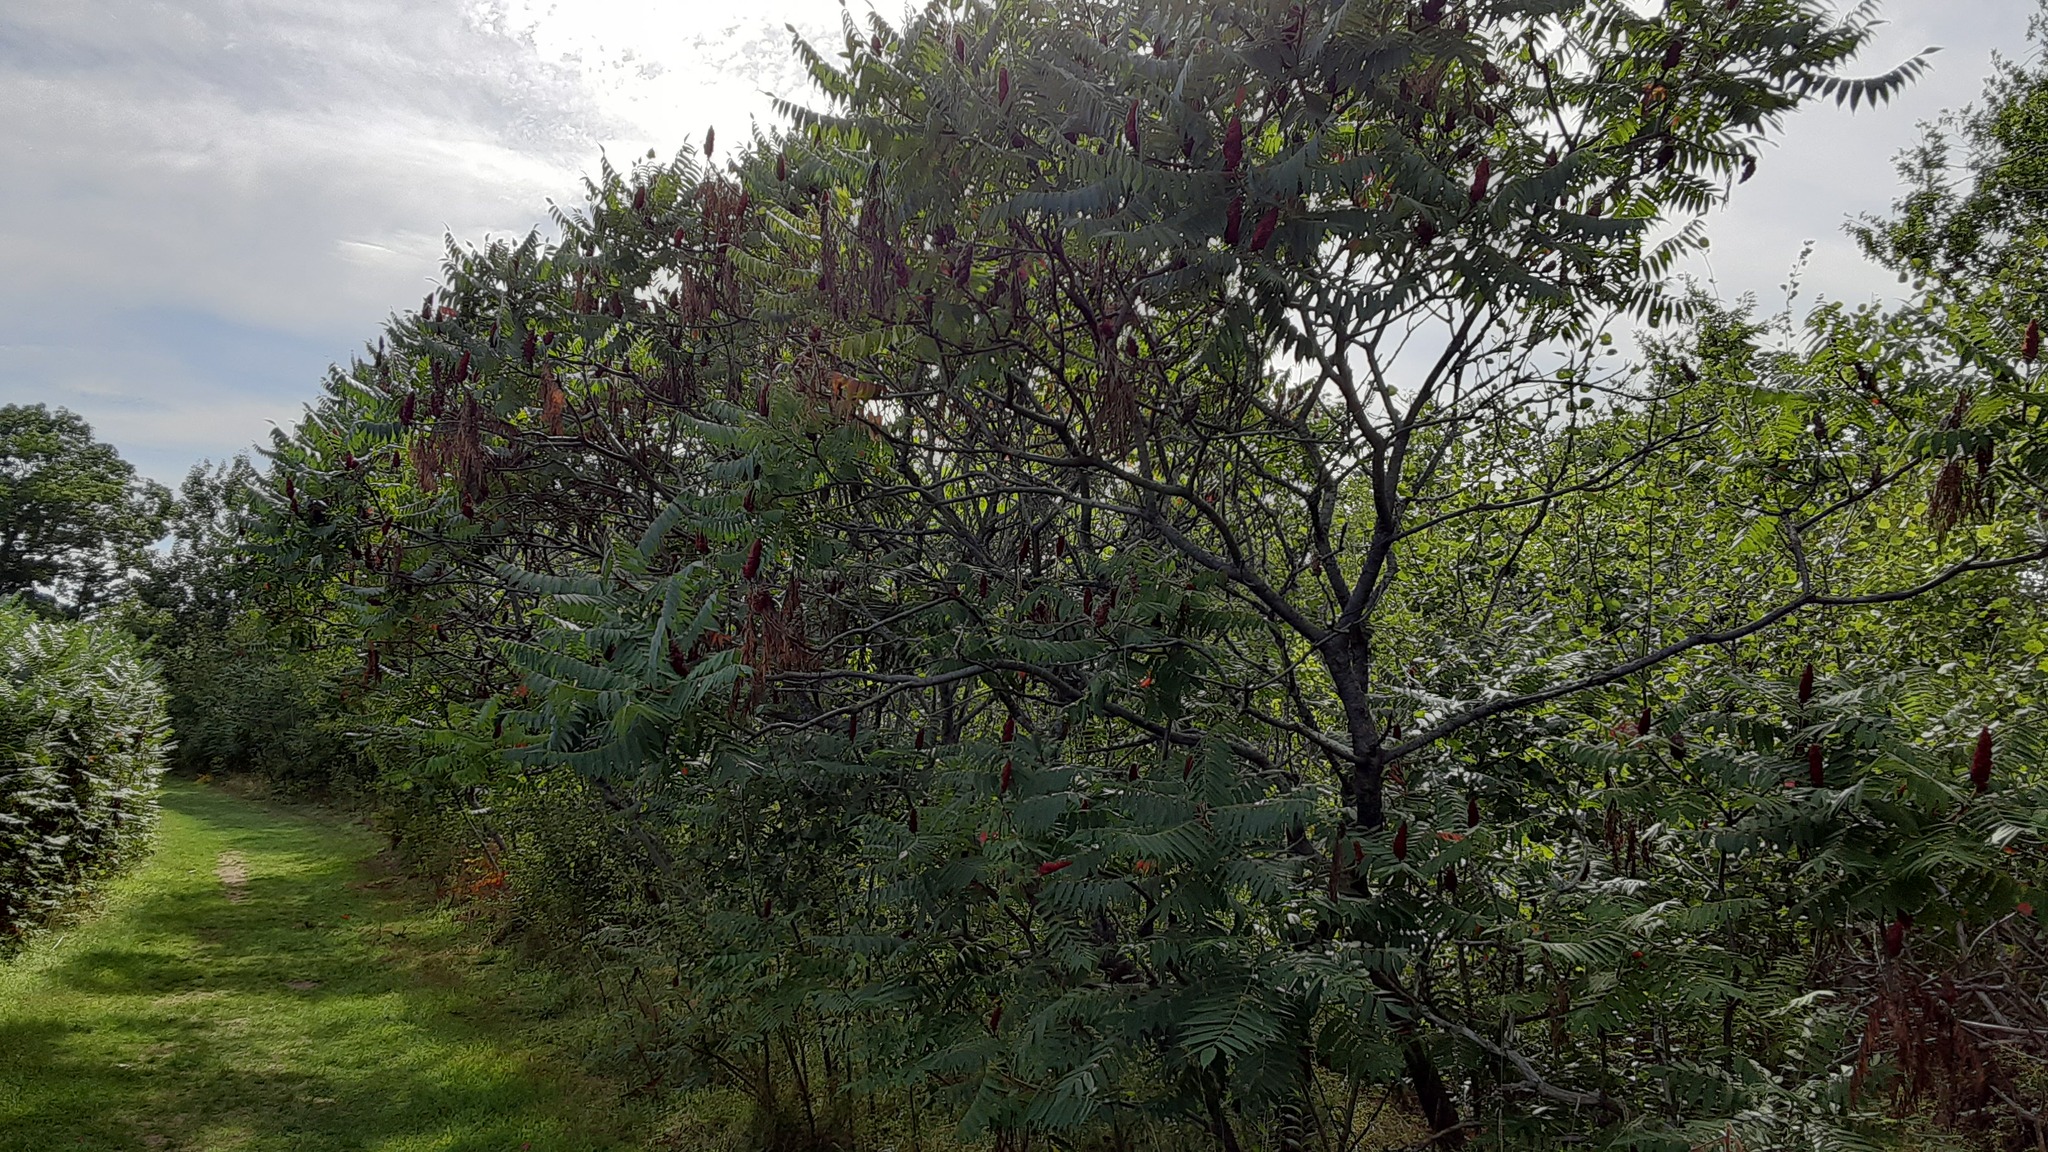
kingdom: Plantae
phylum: Tracheophyta
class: Magnoliopsida
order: Sapindales
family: Anacardiaceae
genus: Rhus
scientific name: Rhus typhina
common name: Staghorn sumac
